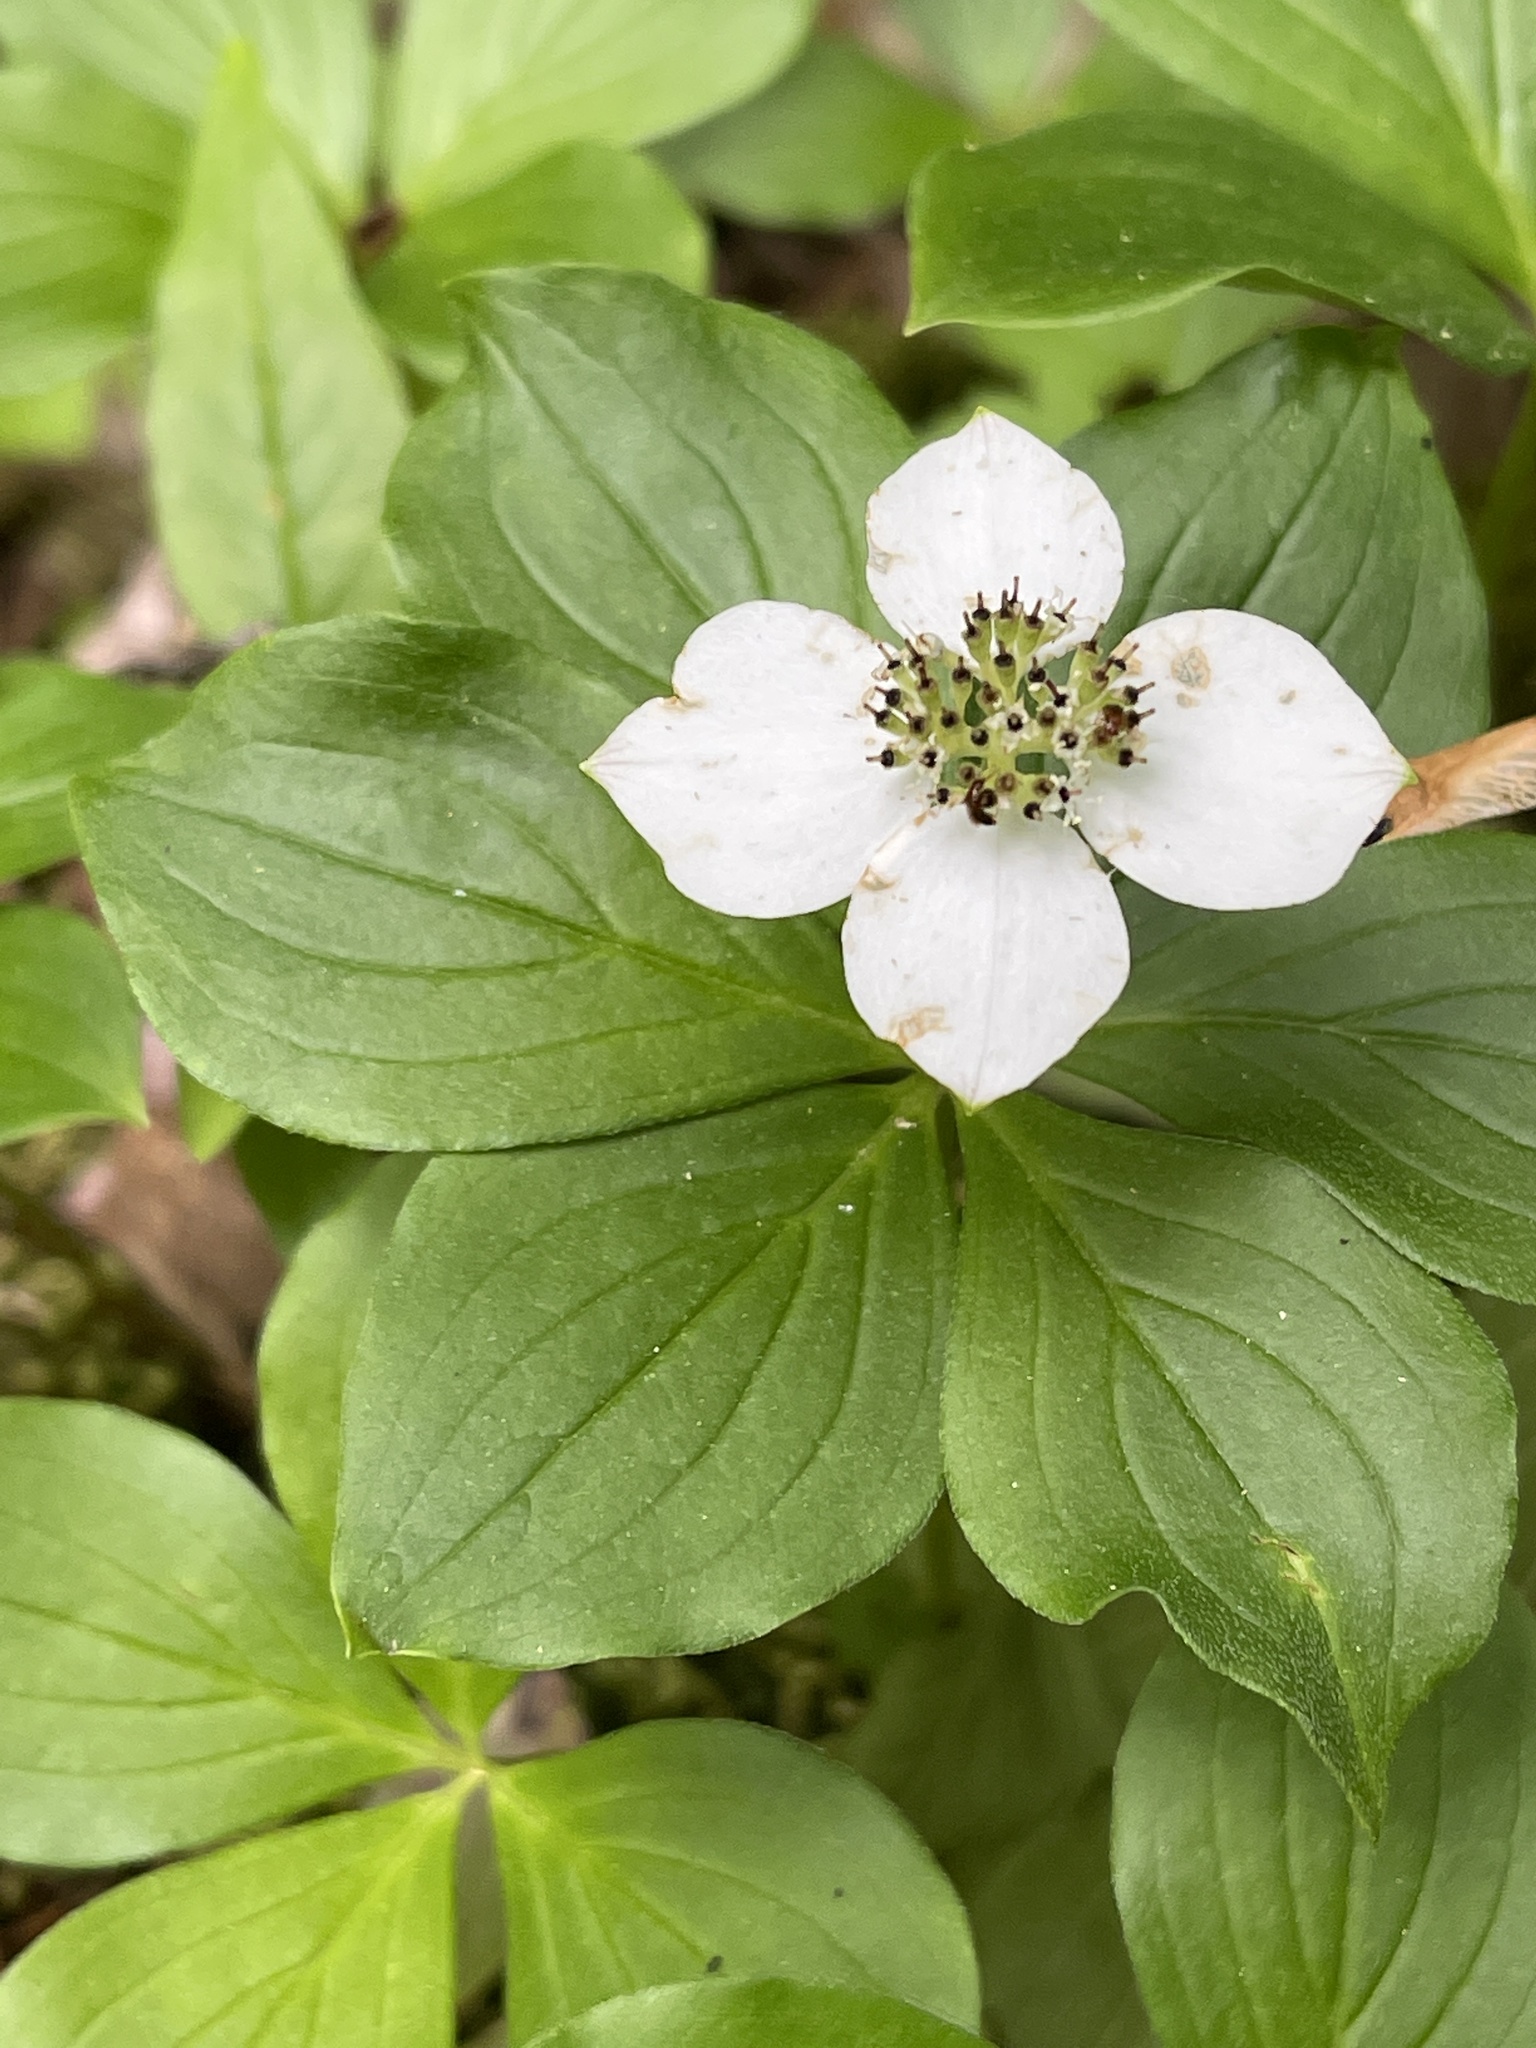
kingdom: Plantae
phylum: Tracheophyta
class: Magnoliopsida
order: Cornales
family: Cornaceae
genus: Cornus
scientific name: Cornus canadensis
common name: Creeping dogwood
